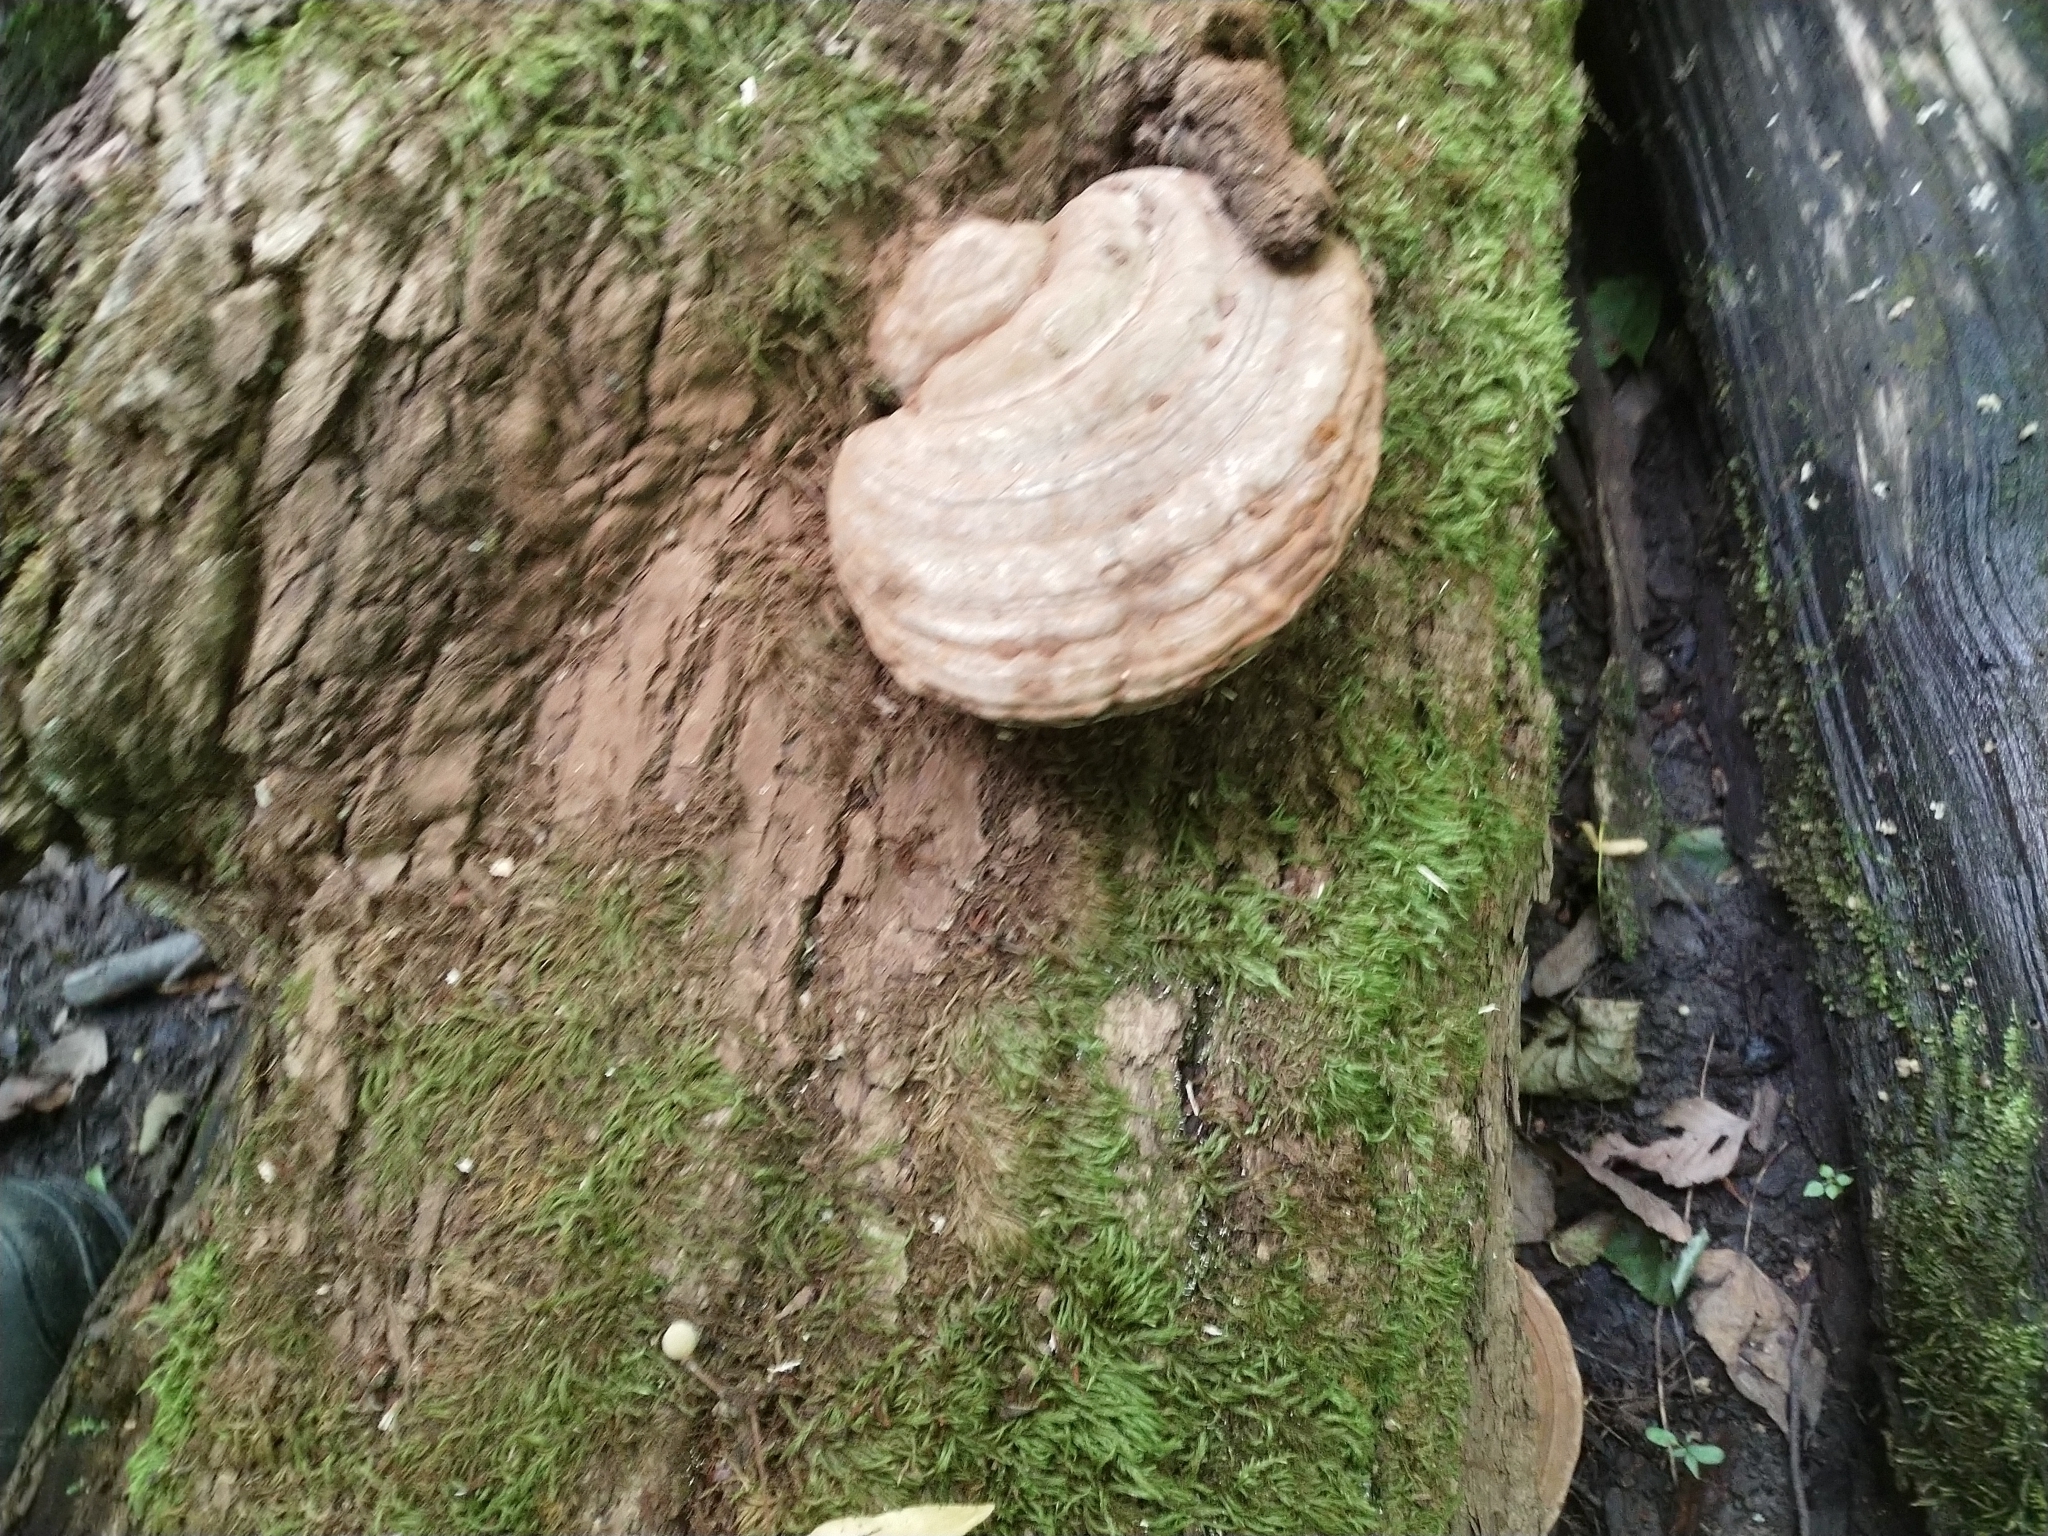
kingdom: Fungi
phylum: Basidiomycota
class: Agaricomycetes
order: Polyporales
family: Polyporaceae
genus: Fomes
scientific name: Fomes fomentarius
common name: Hoof fungus
